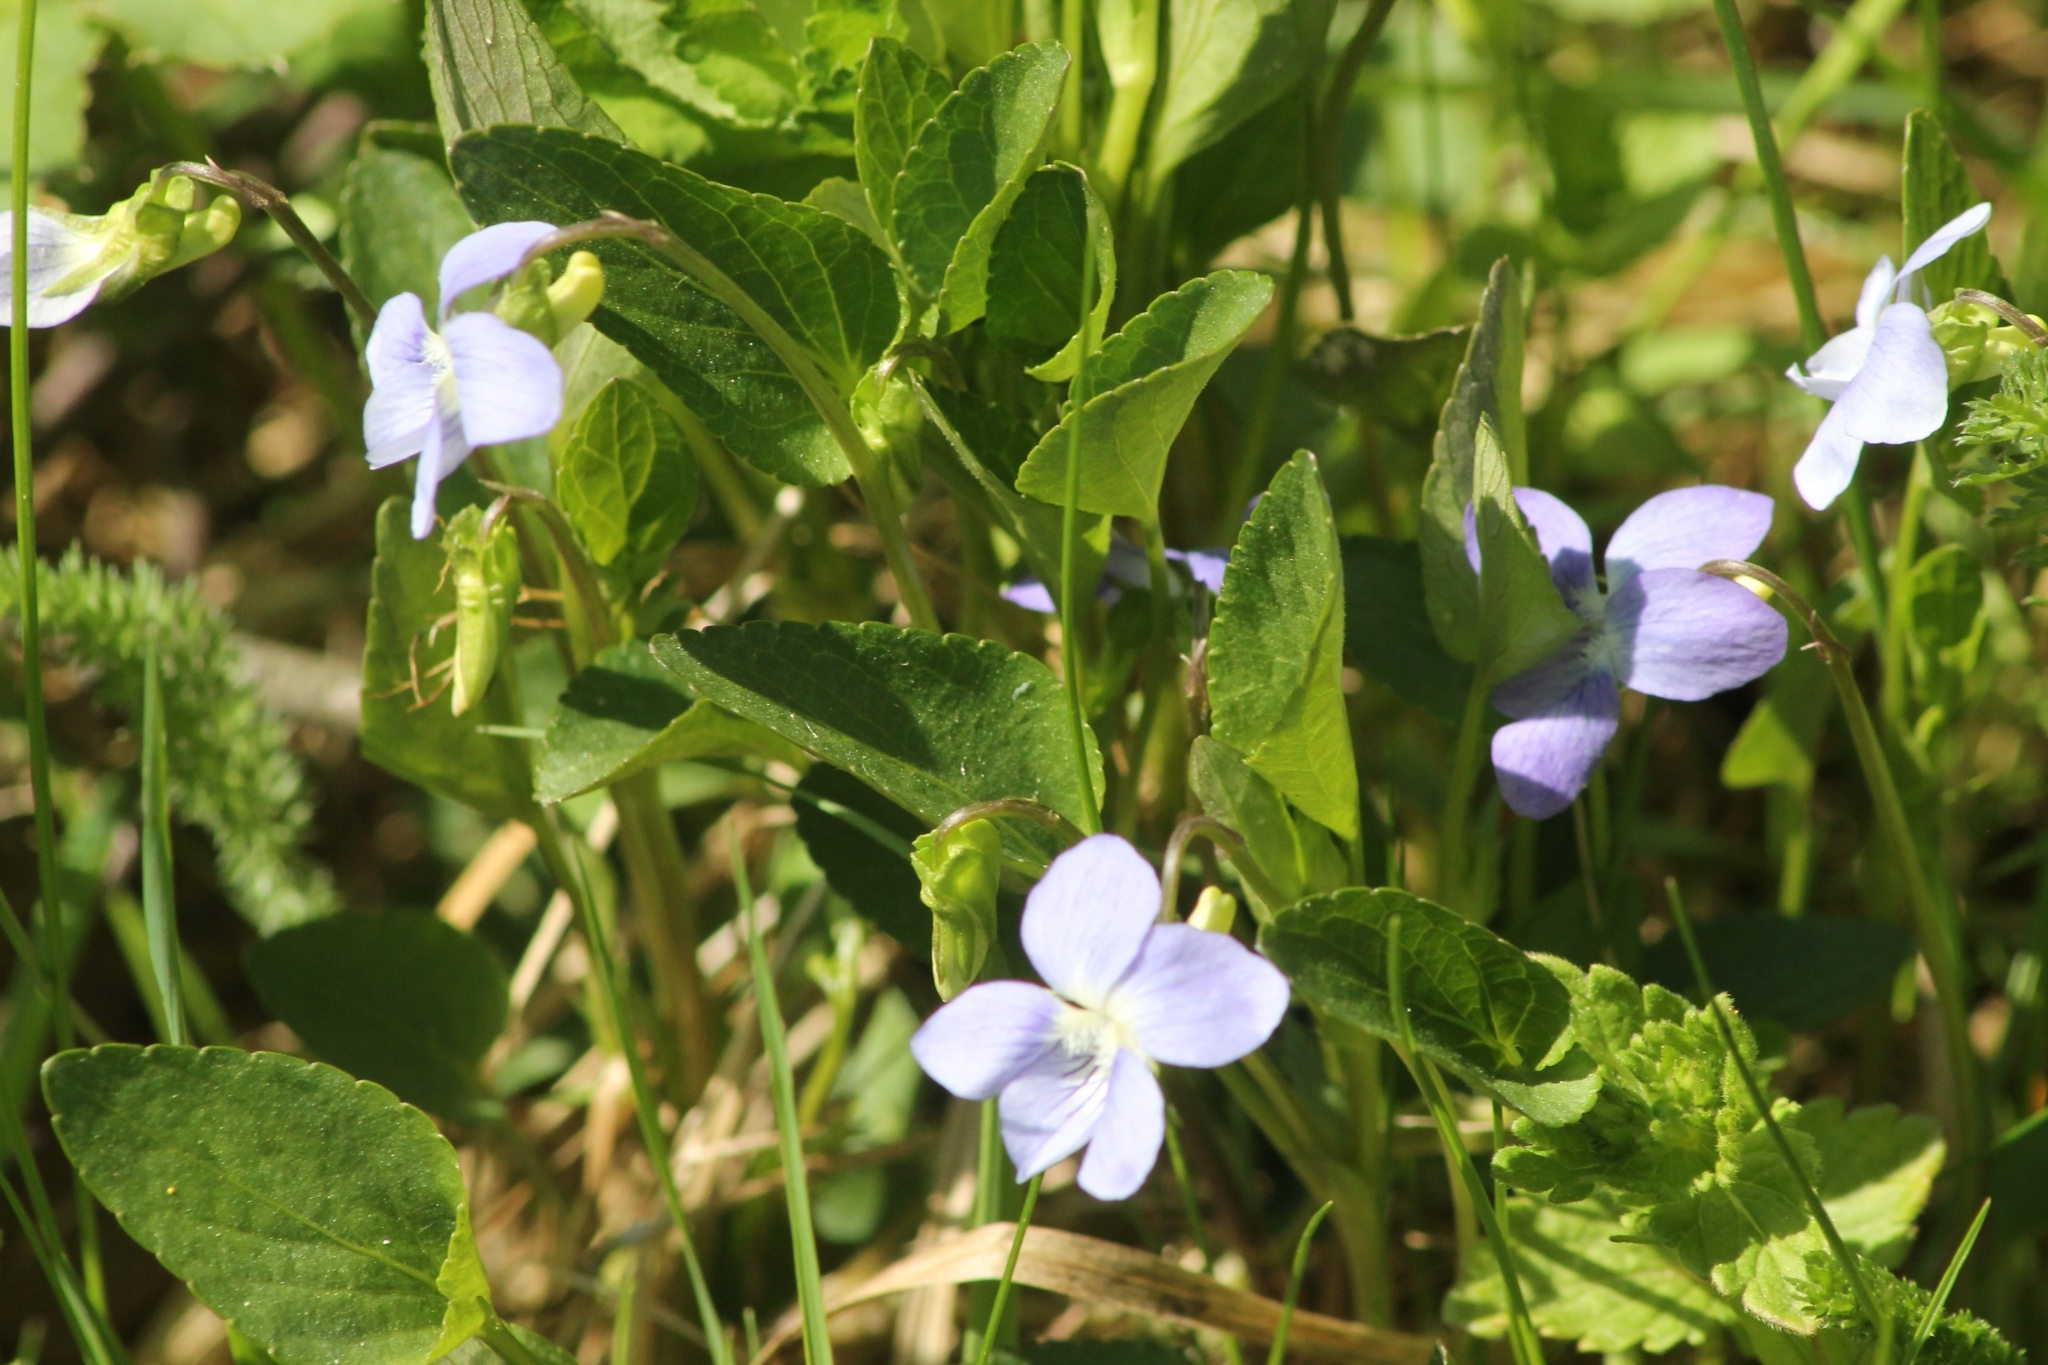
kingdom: Plantae
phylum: Tracheophyta
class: Magnoliopsida
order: Malpighiales
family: Violaceae
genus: Viola
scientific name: Viola canina
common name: Heath dog-violet
